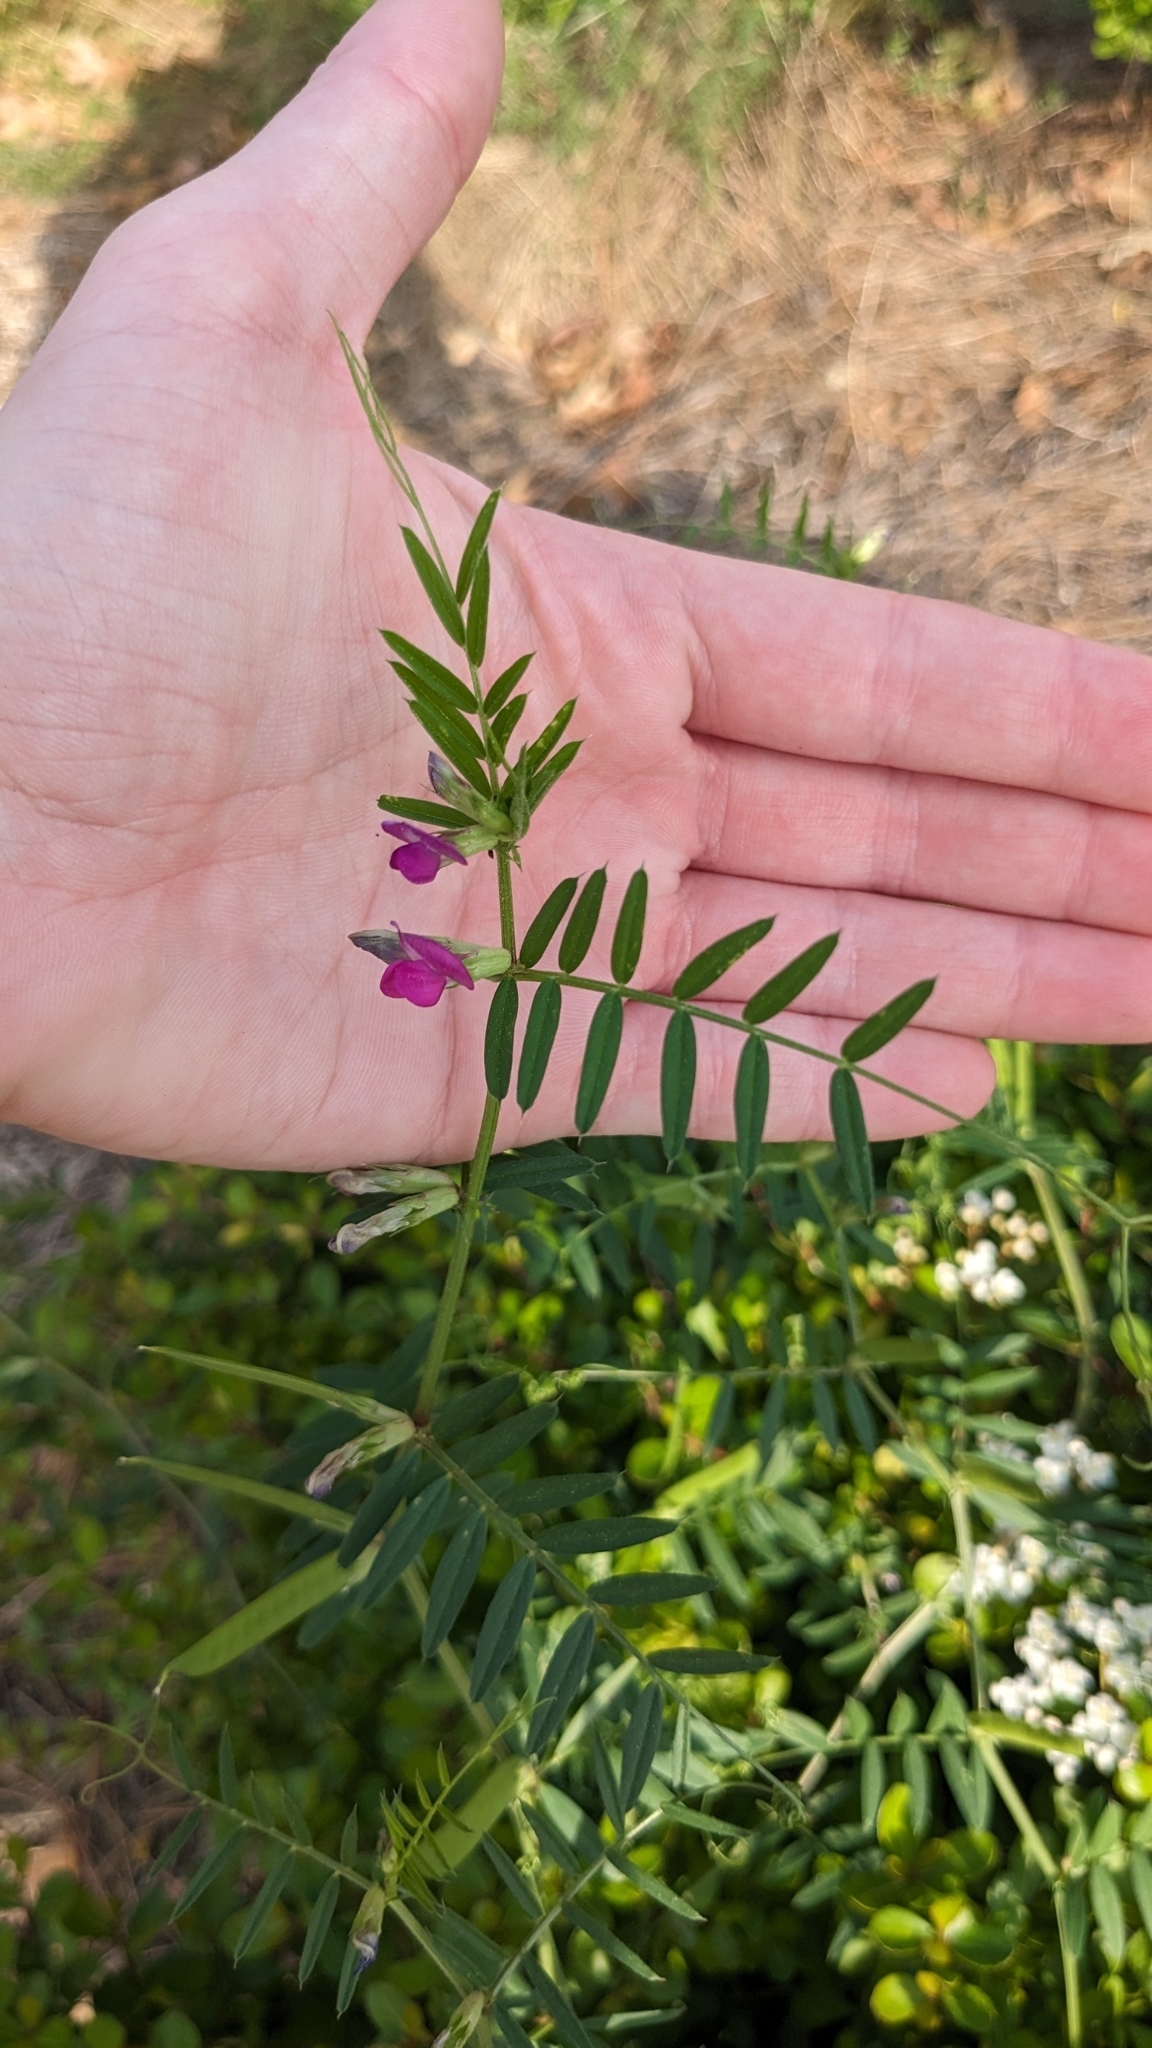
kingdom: Plantae
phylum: Tracheophyta
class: Magnoliopsida
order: Fabales
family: Fabaceae
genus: Vicia
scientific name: Vicia sativa
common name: Garden vetch
